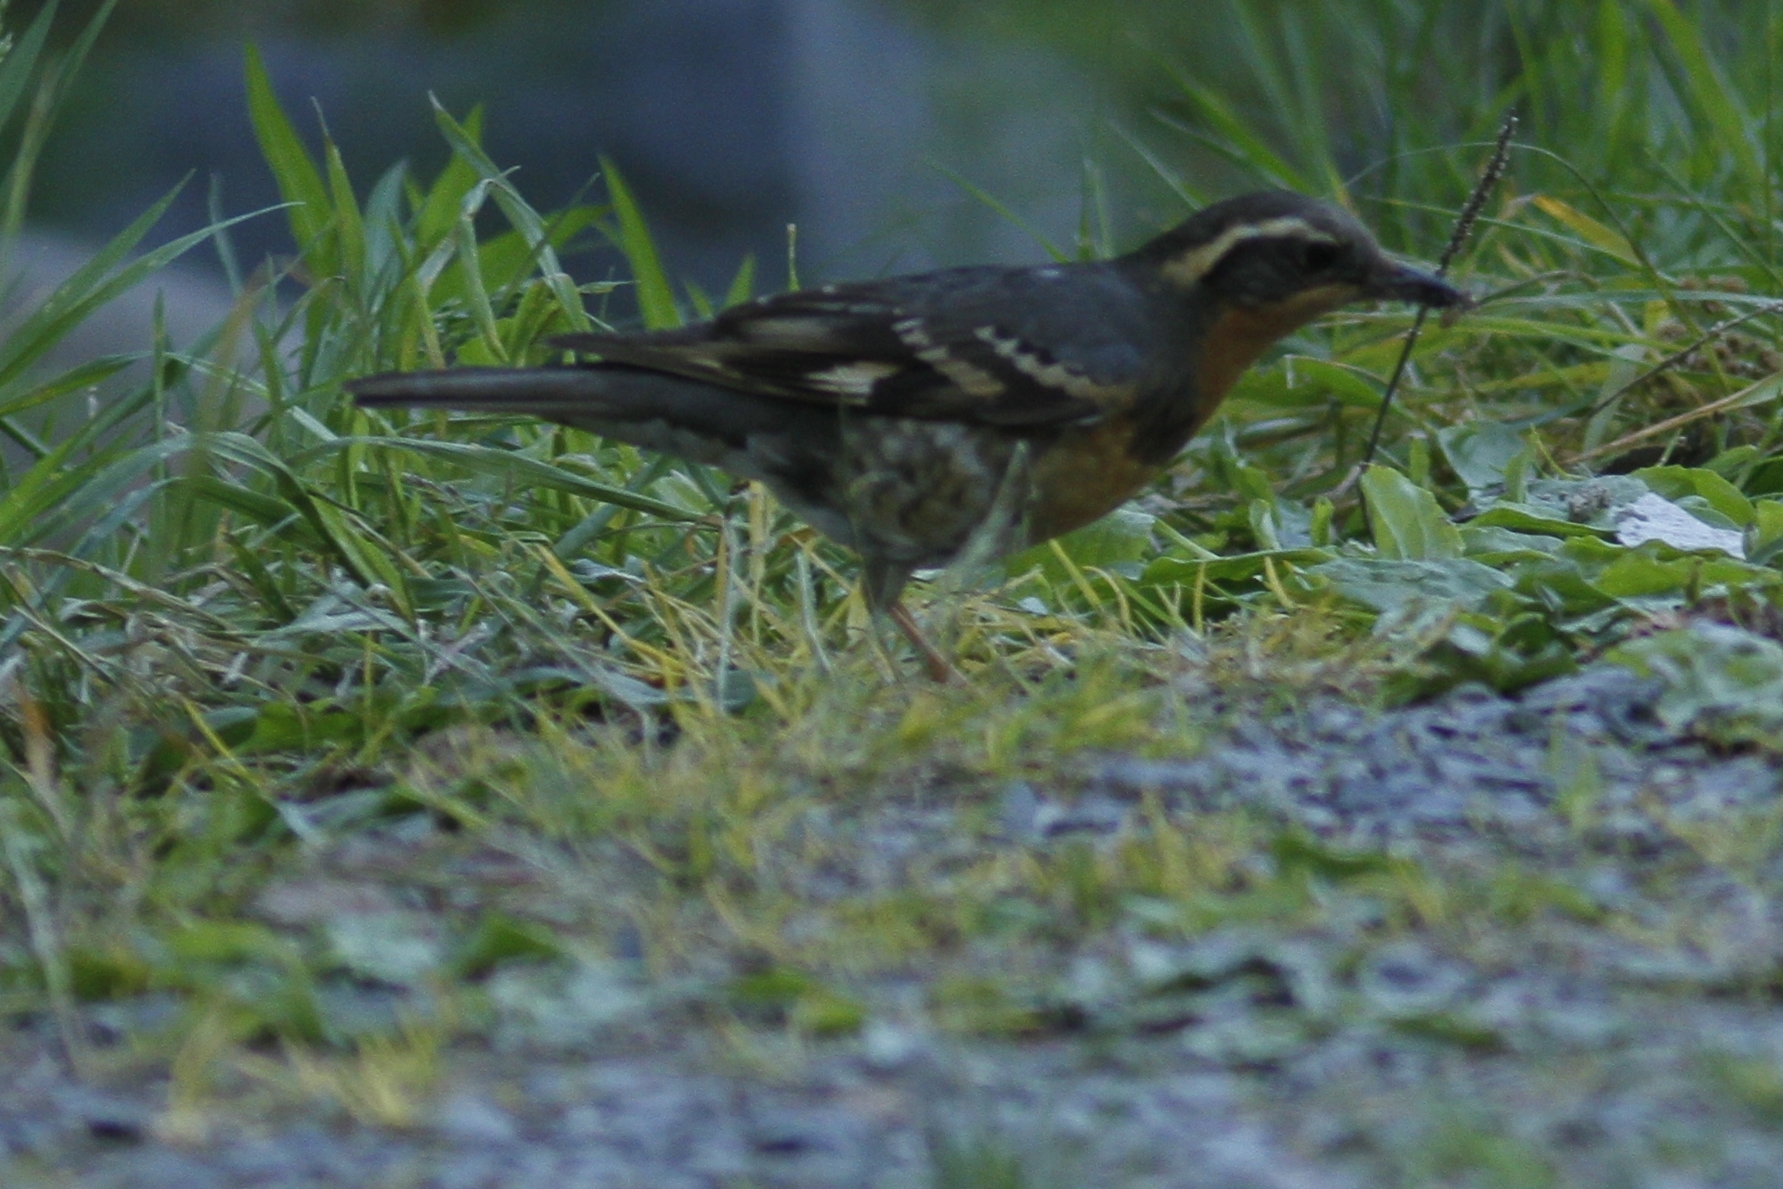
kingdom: Animalia
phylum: Chordata
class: Aves
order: Passeriformes
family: Turdidae
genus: Ixoreus
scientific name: Ixoreus naevius
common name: Varied thrush
